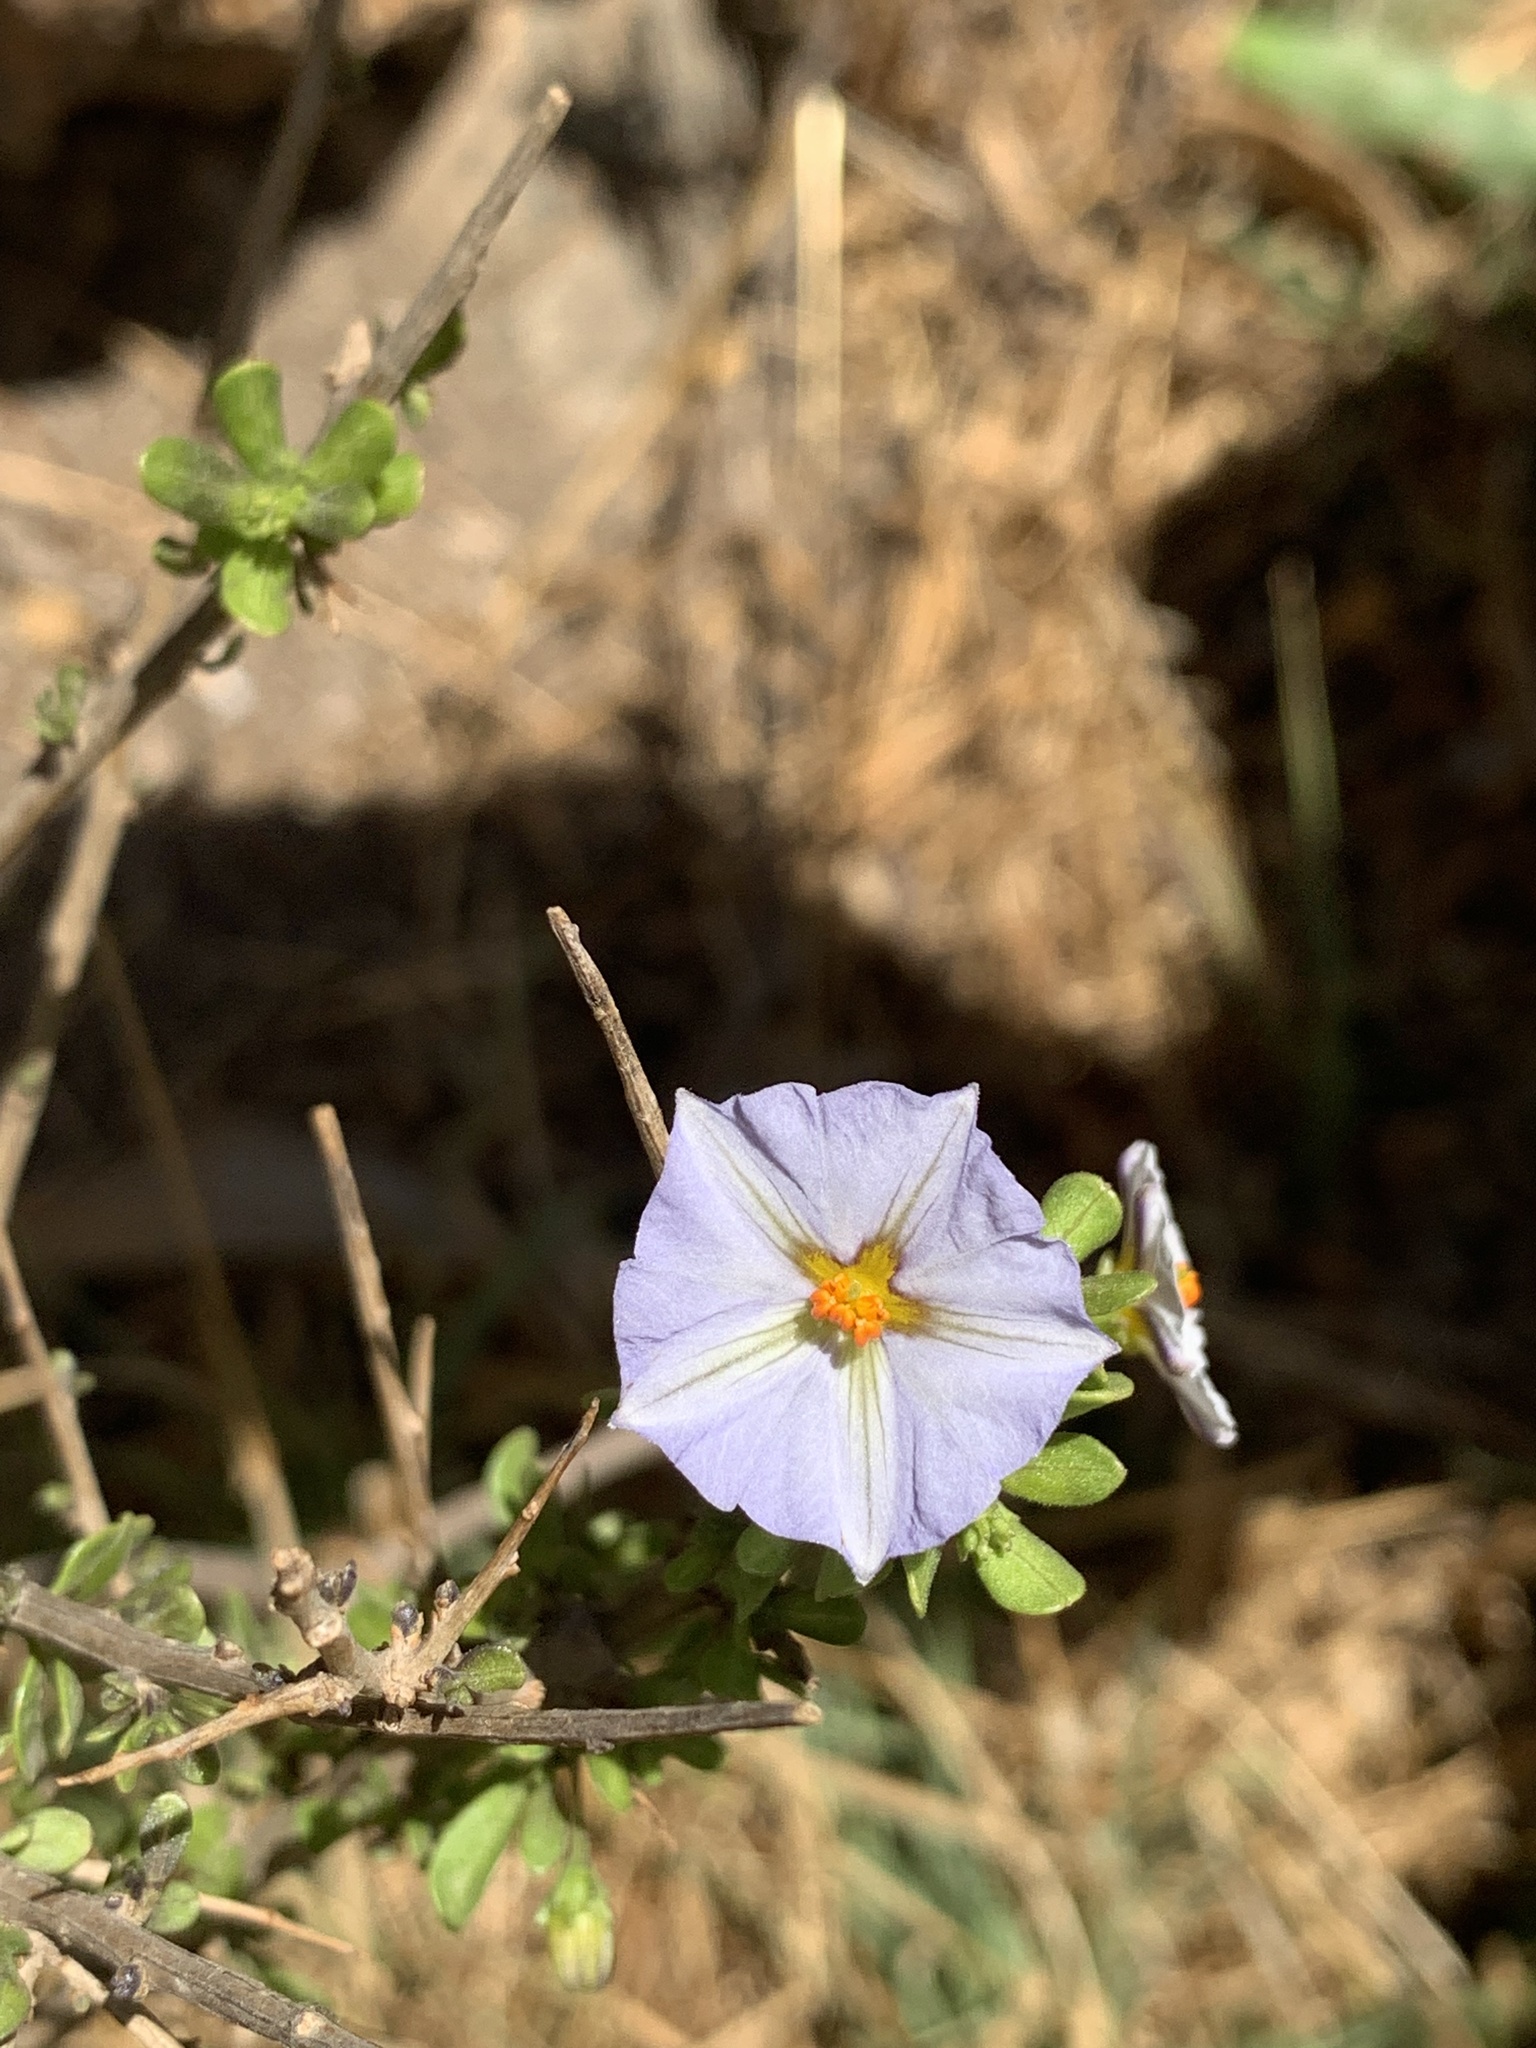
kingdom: Plantae
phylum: Tracheophyta
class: Magnoliopsida
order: Solanales
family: Solanaceae
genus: Lycianthes
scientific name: Lycianthes lycioides
